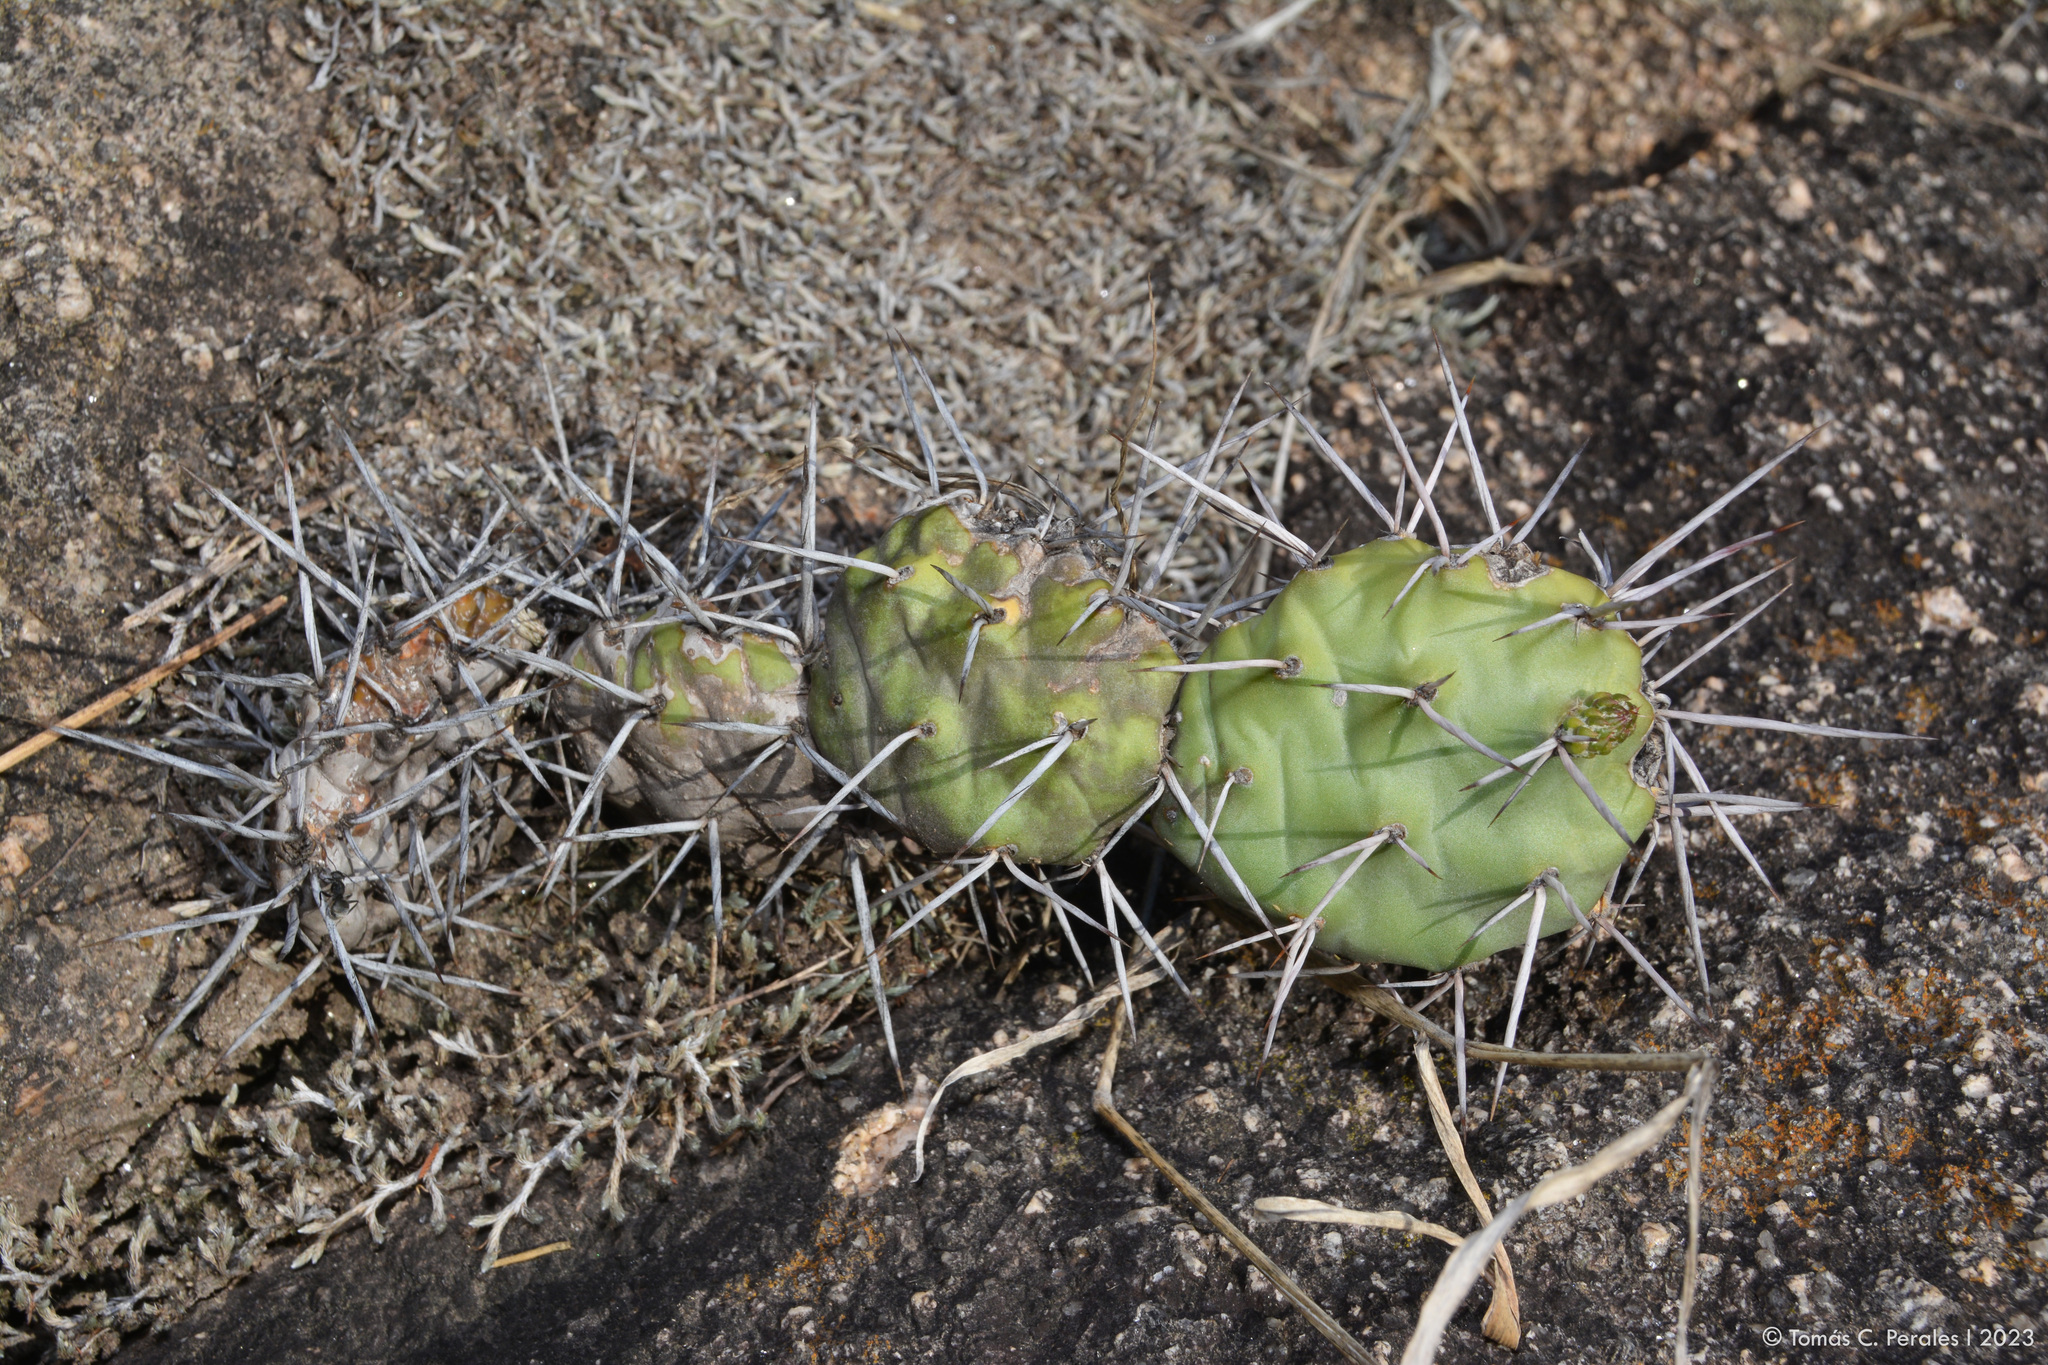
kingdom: Plantae
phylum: Tracheophyta
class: Magnoliopsida
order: Caryophyllales
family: Cactaceae
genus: Opuntia
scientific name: Opuntia sulphurea
